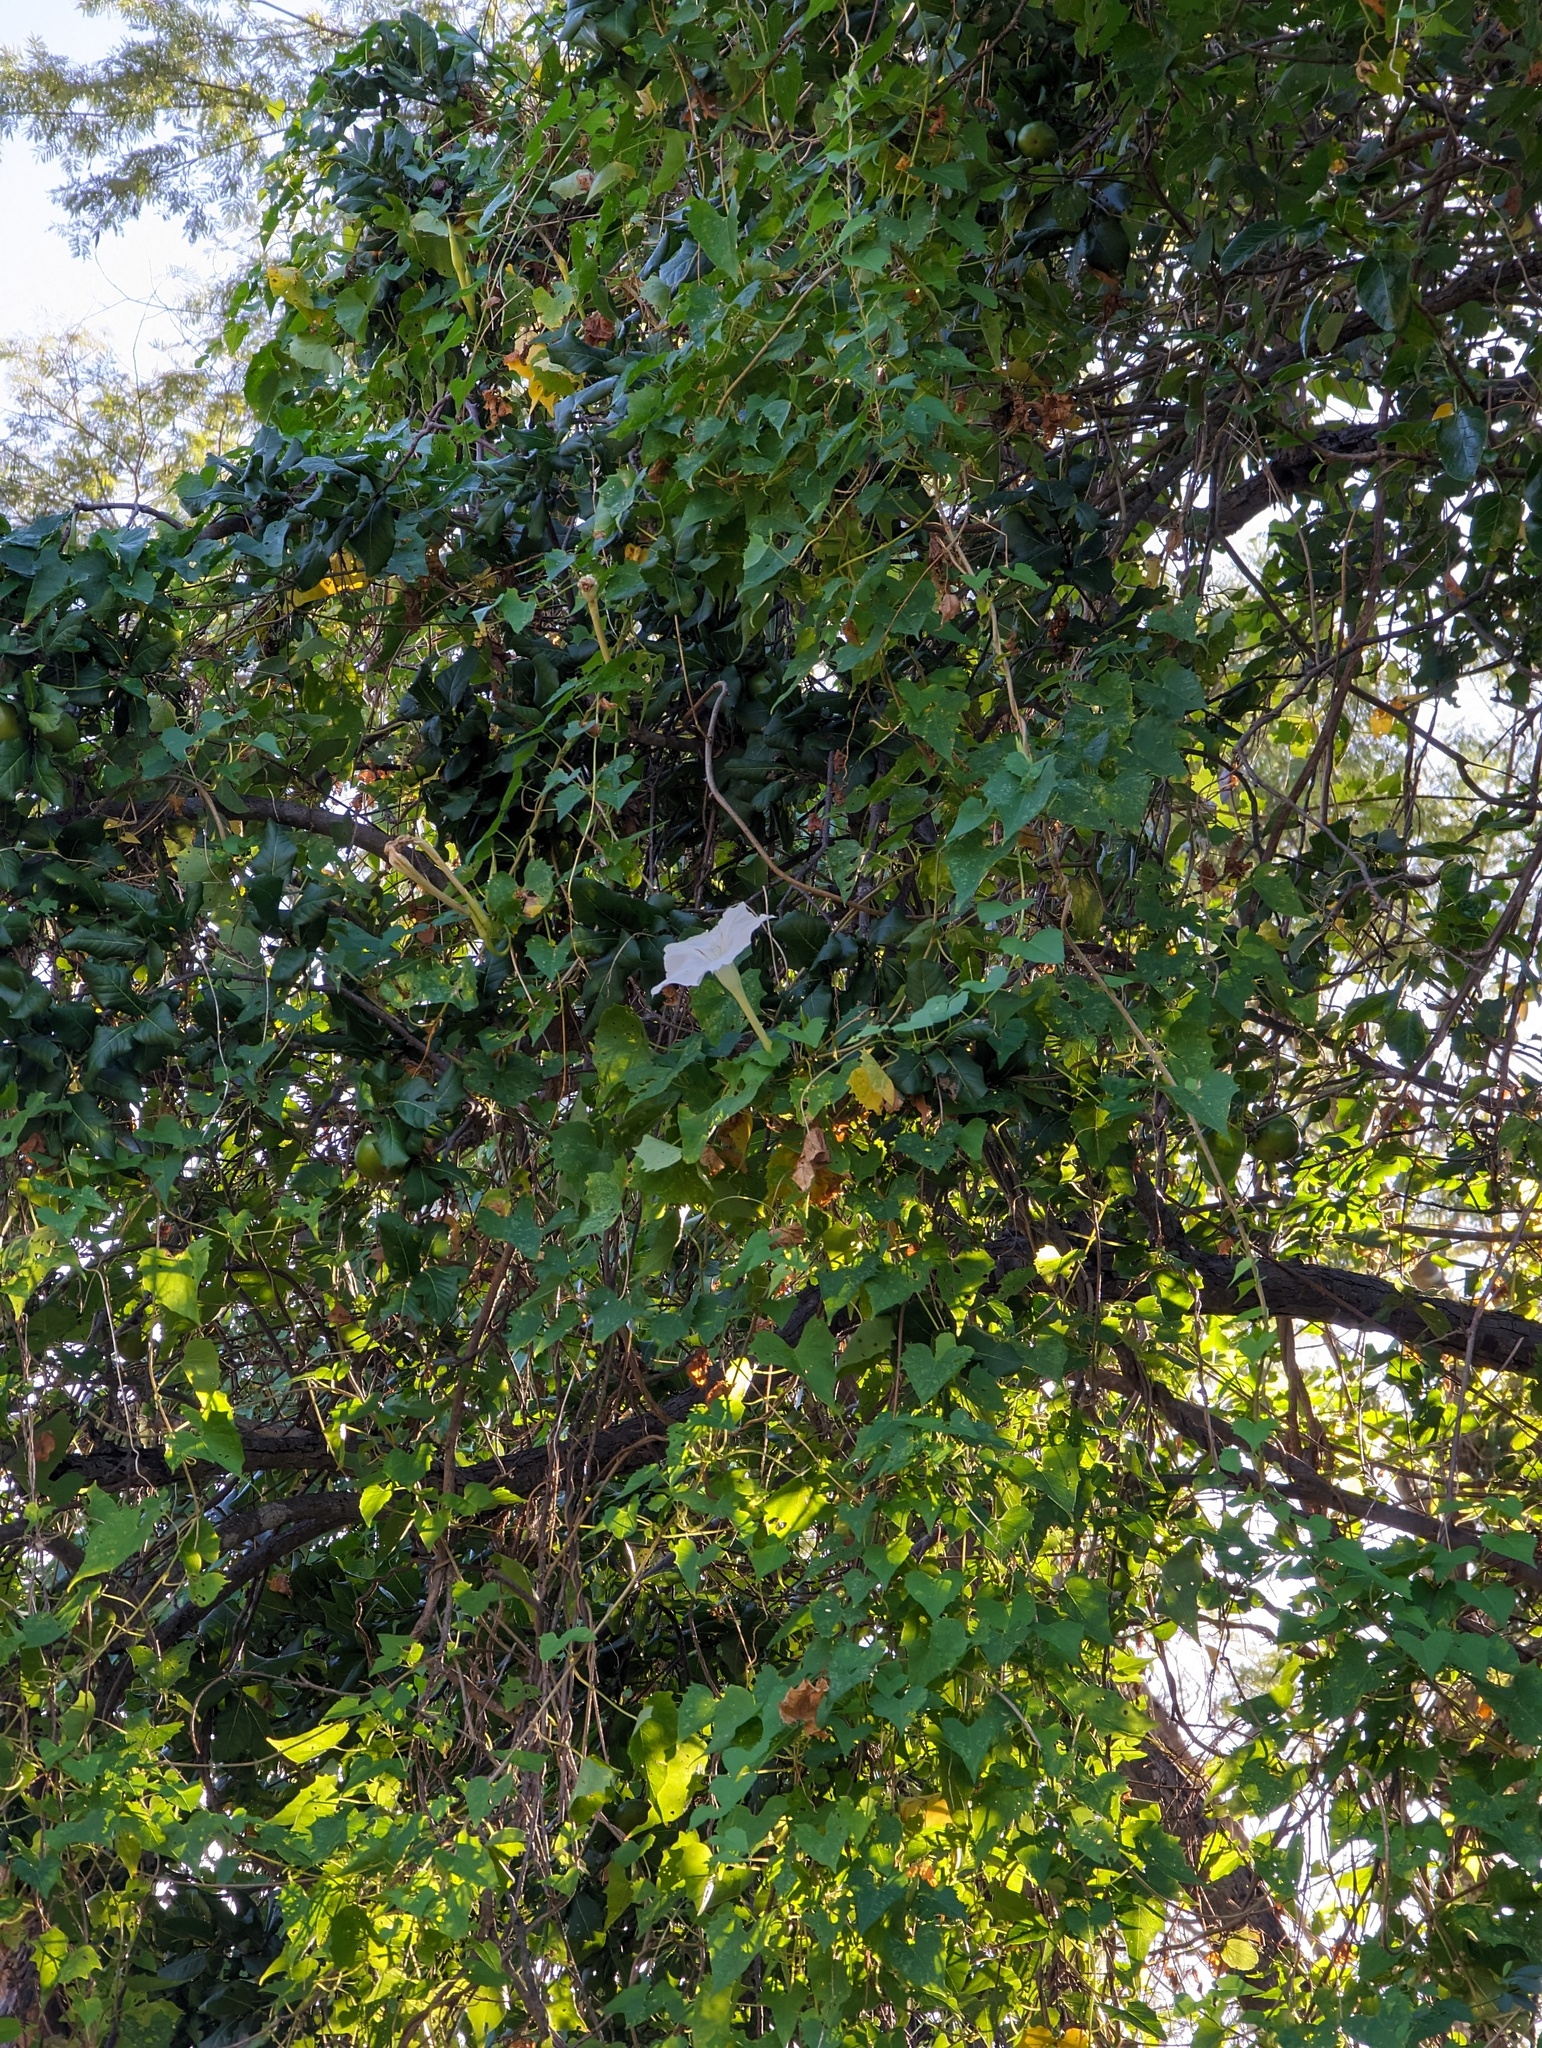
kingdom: Plantae
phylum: Tracheophyta
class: Magnoliopsida
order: Solanales
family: Convolvulaceae
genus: Ipomoea
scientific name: Ipomoea tastensis
